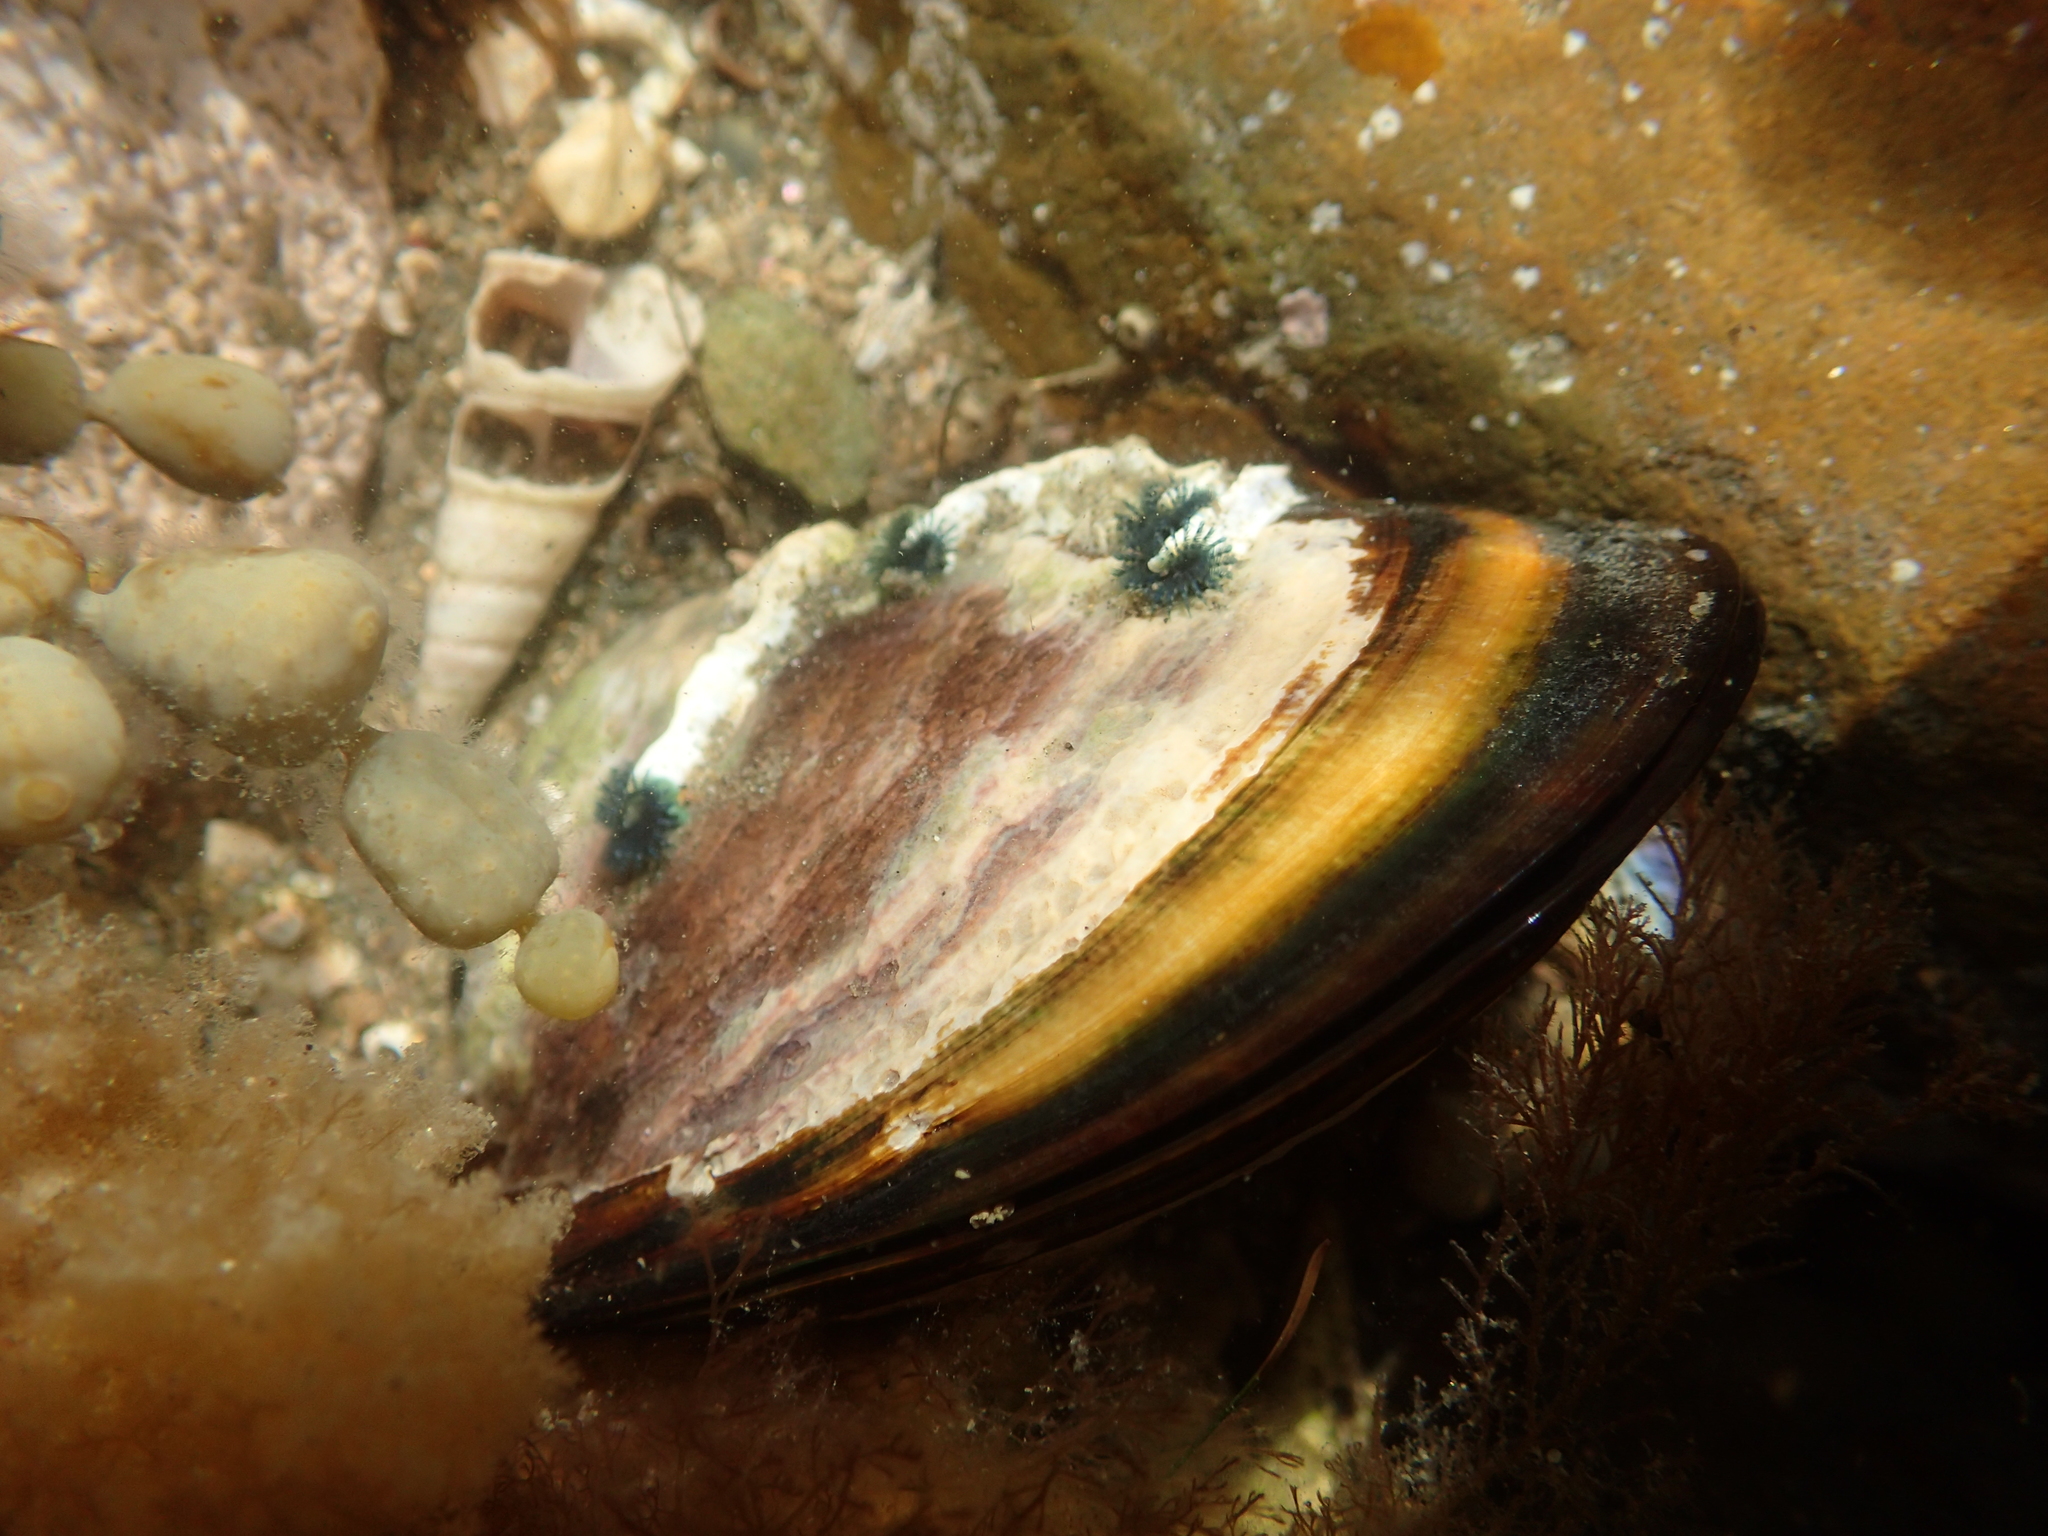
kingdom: Animalia
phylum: Mollusca
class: Bivalvia
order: Mytilida
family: Mytilidae
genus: Perna
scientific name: Perna canaliculus
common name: New zealand greenshelltm
